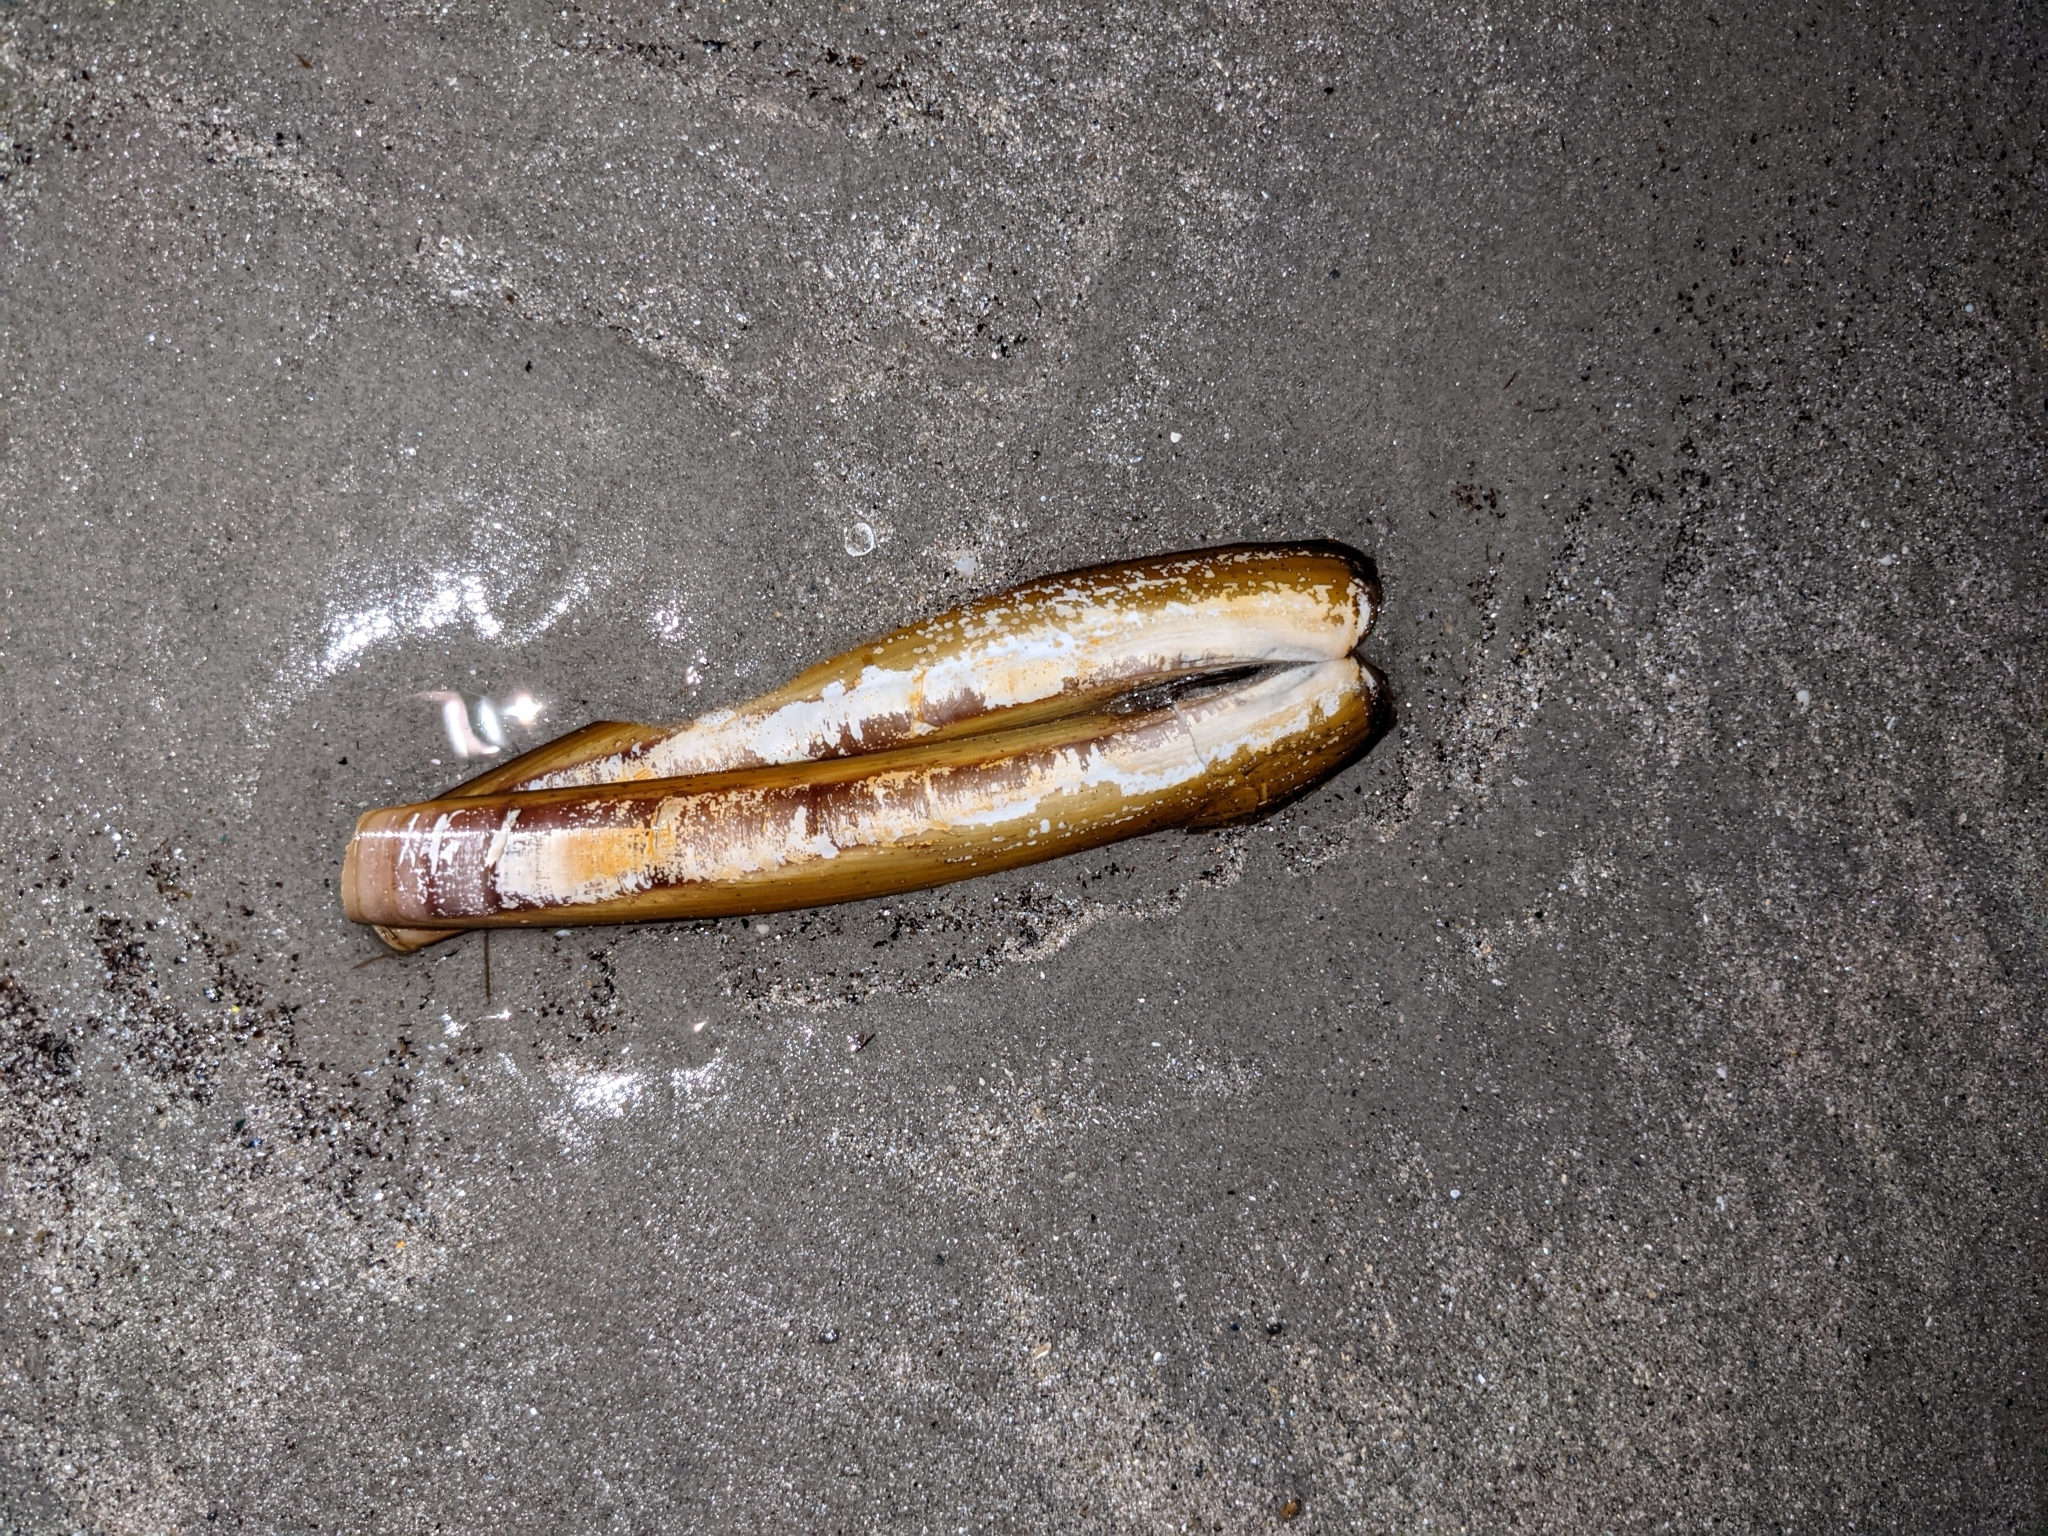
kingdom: Animalia
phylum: Mollusca
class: Bivalvia
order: Adapedonta
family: Pharidae
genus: Ensis
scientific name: Ensis leei
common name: American jack knife clam
